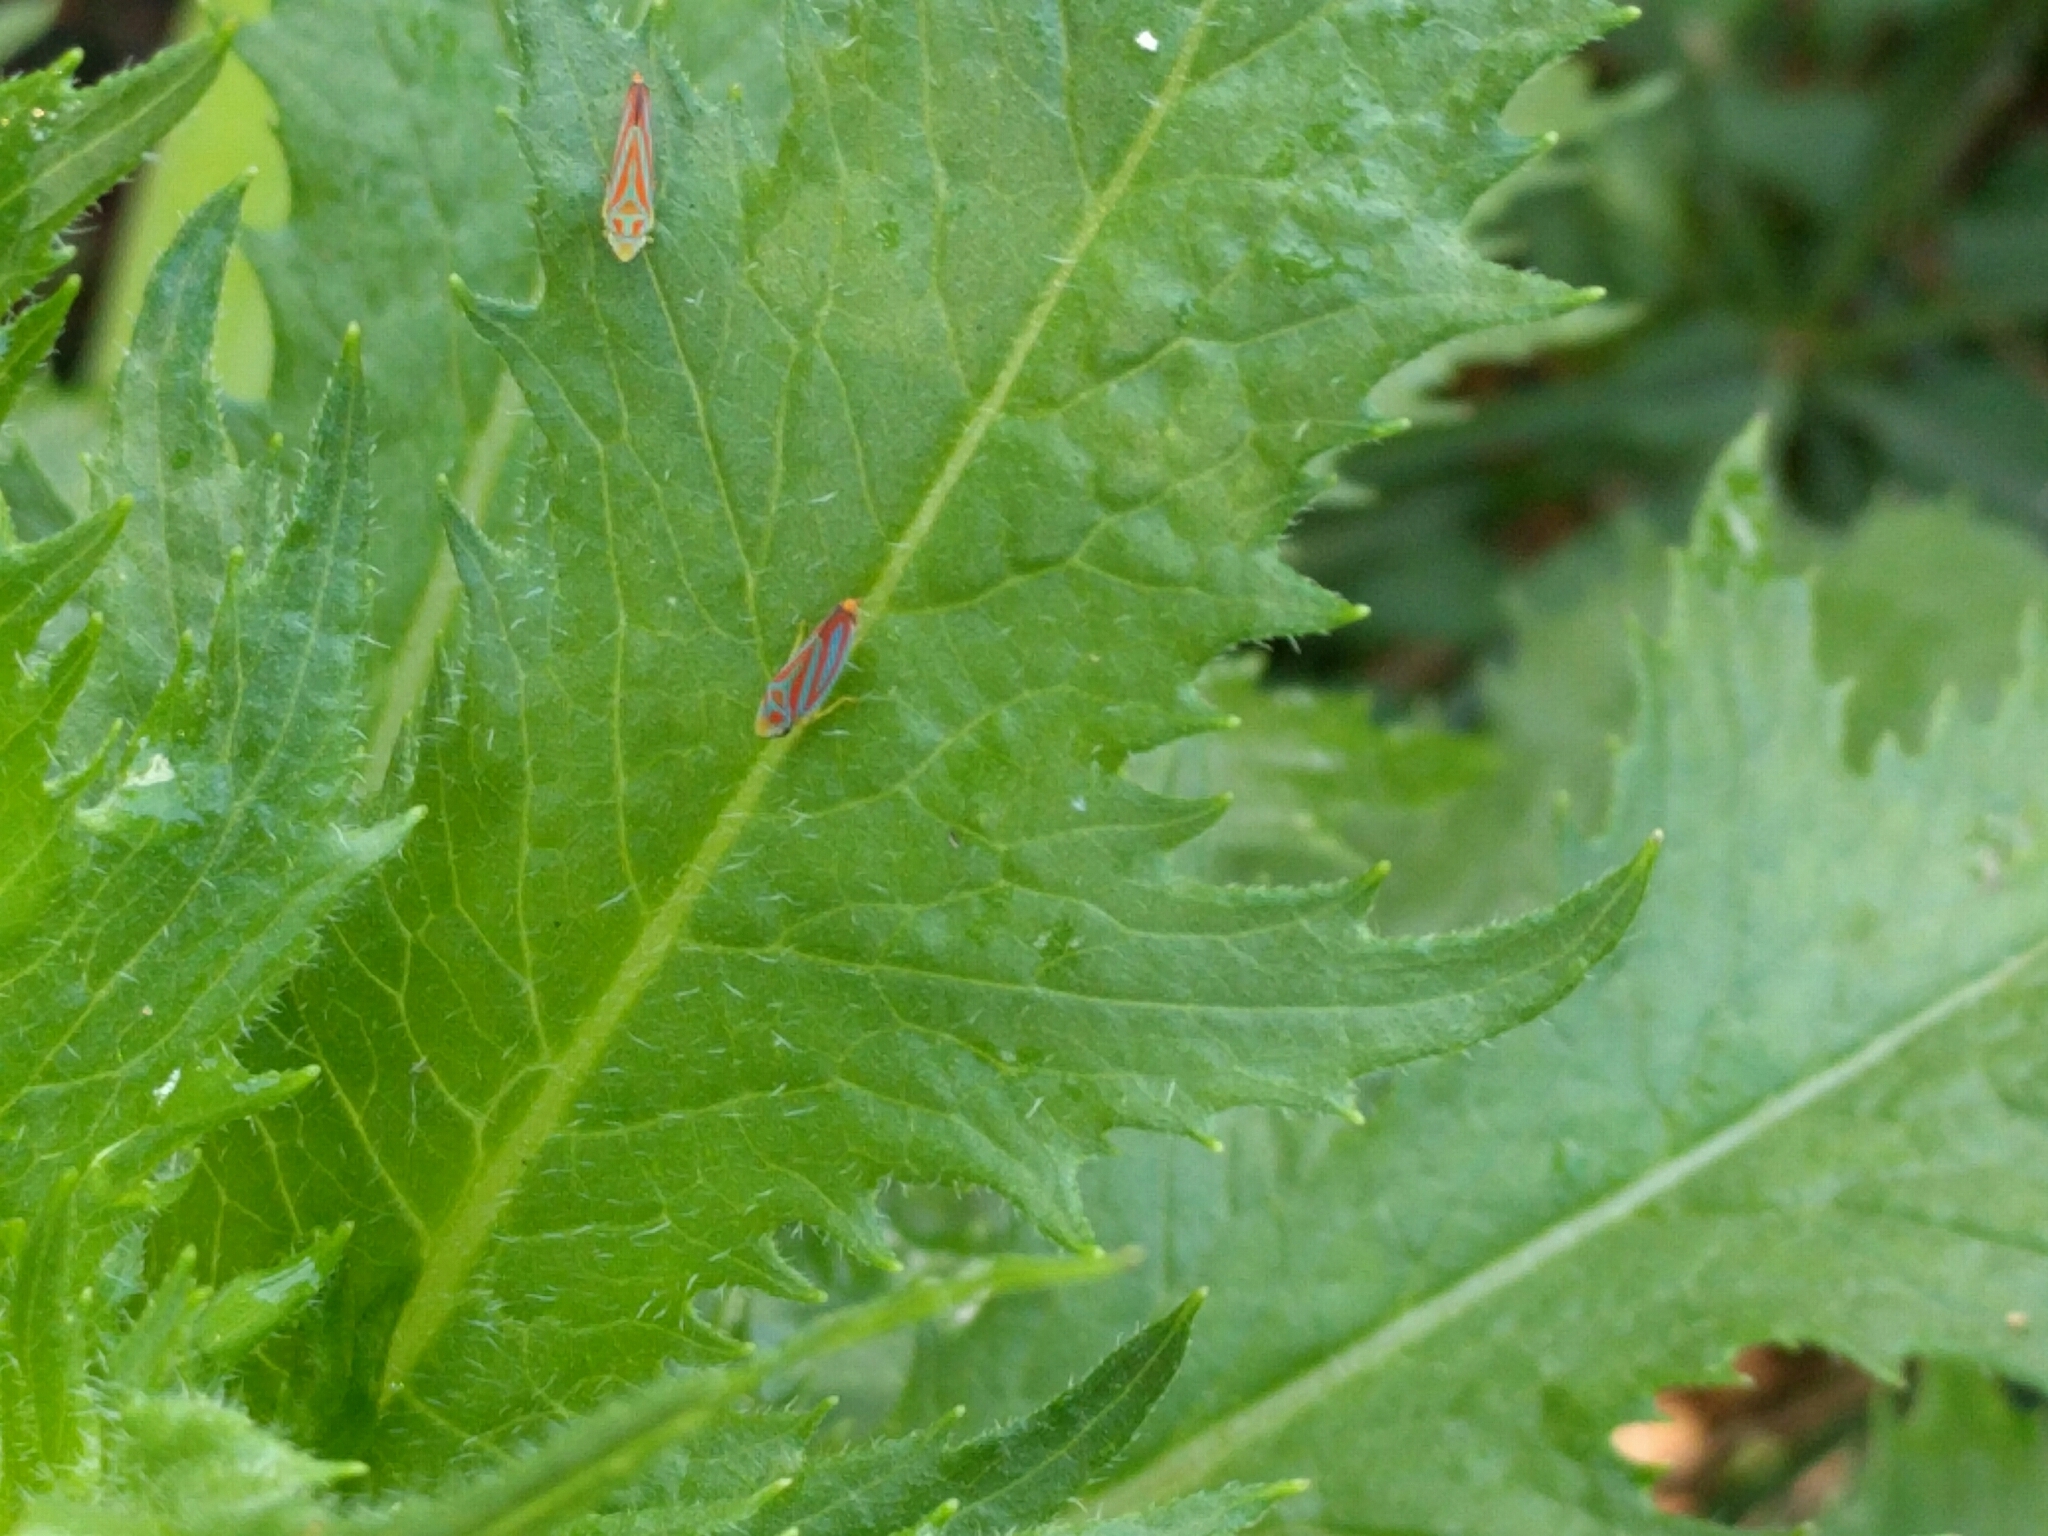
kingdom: Animalia
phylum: Arthropoda
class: Insecta
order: Hemiptera
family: Cicadellidae
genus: Graphocephala
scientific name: Graphocephala coccinea
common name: Candy-striped leafhopper
